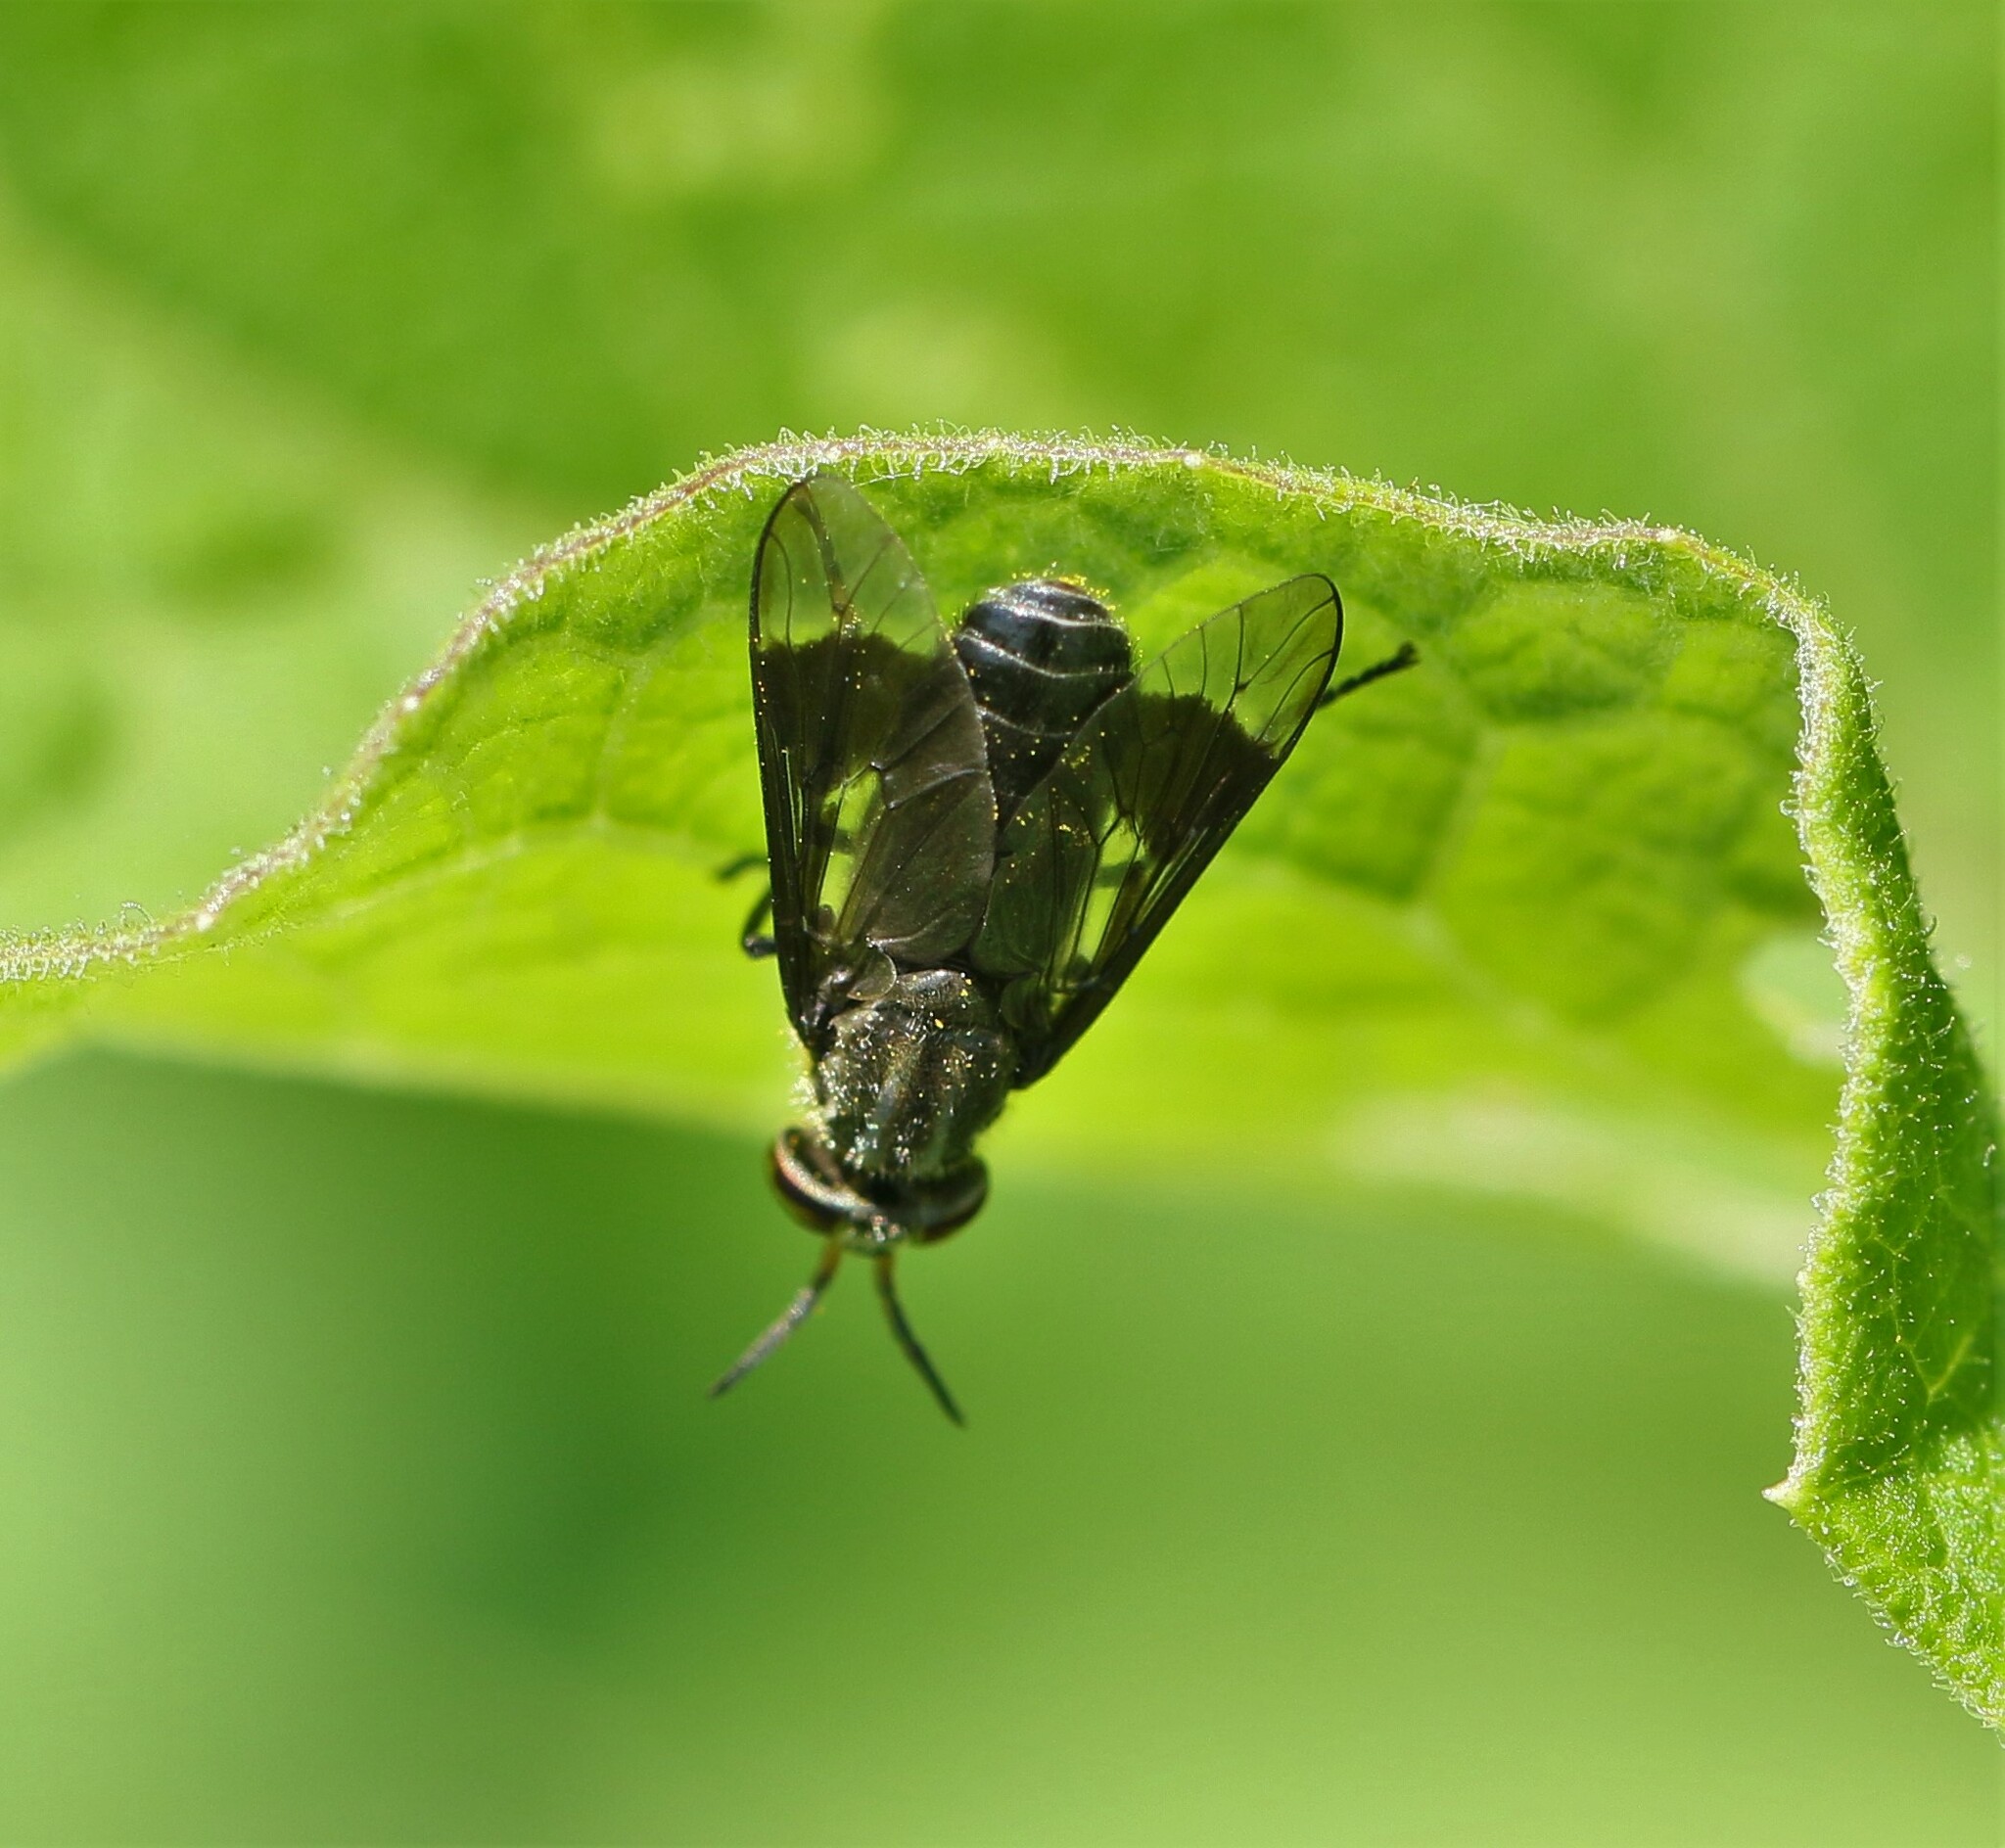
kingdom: Animalia
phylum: Arthropoda
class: Insecta
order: Diptera
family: Tabanidae
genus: Chrysops
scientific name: Chrysops niger
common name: Black deer fly
